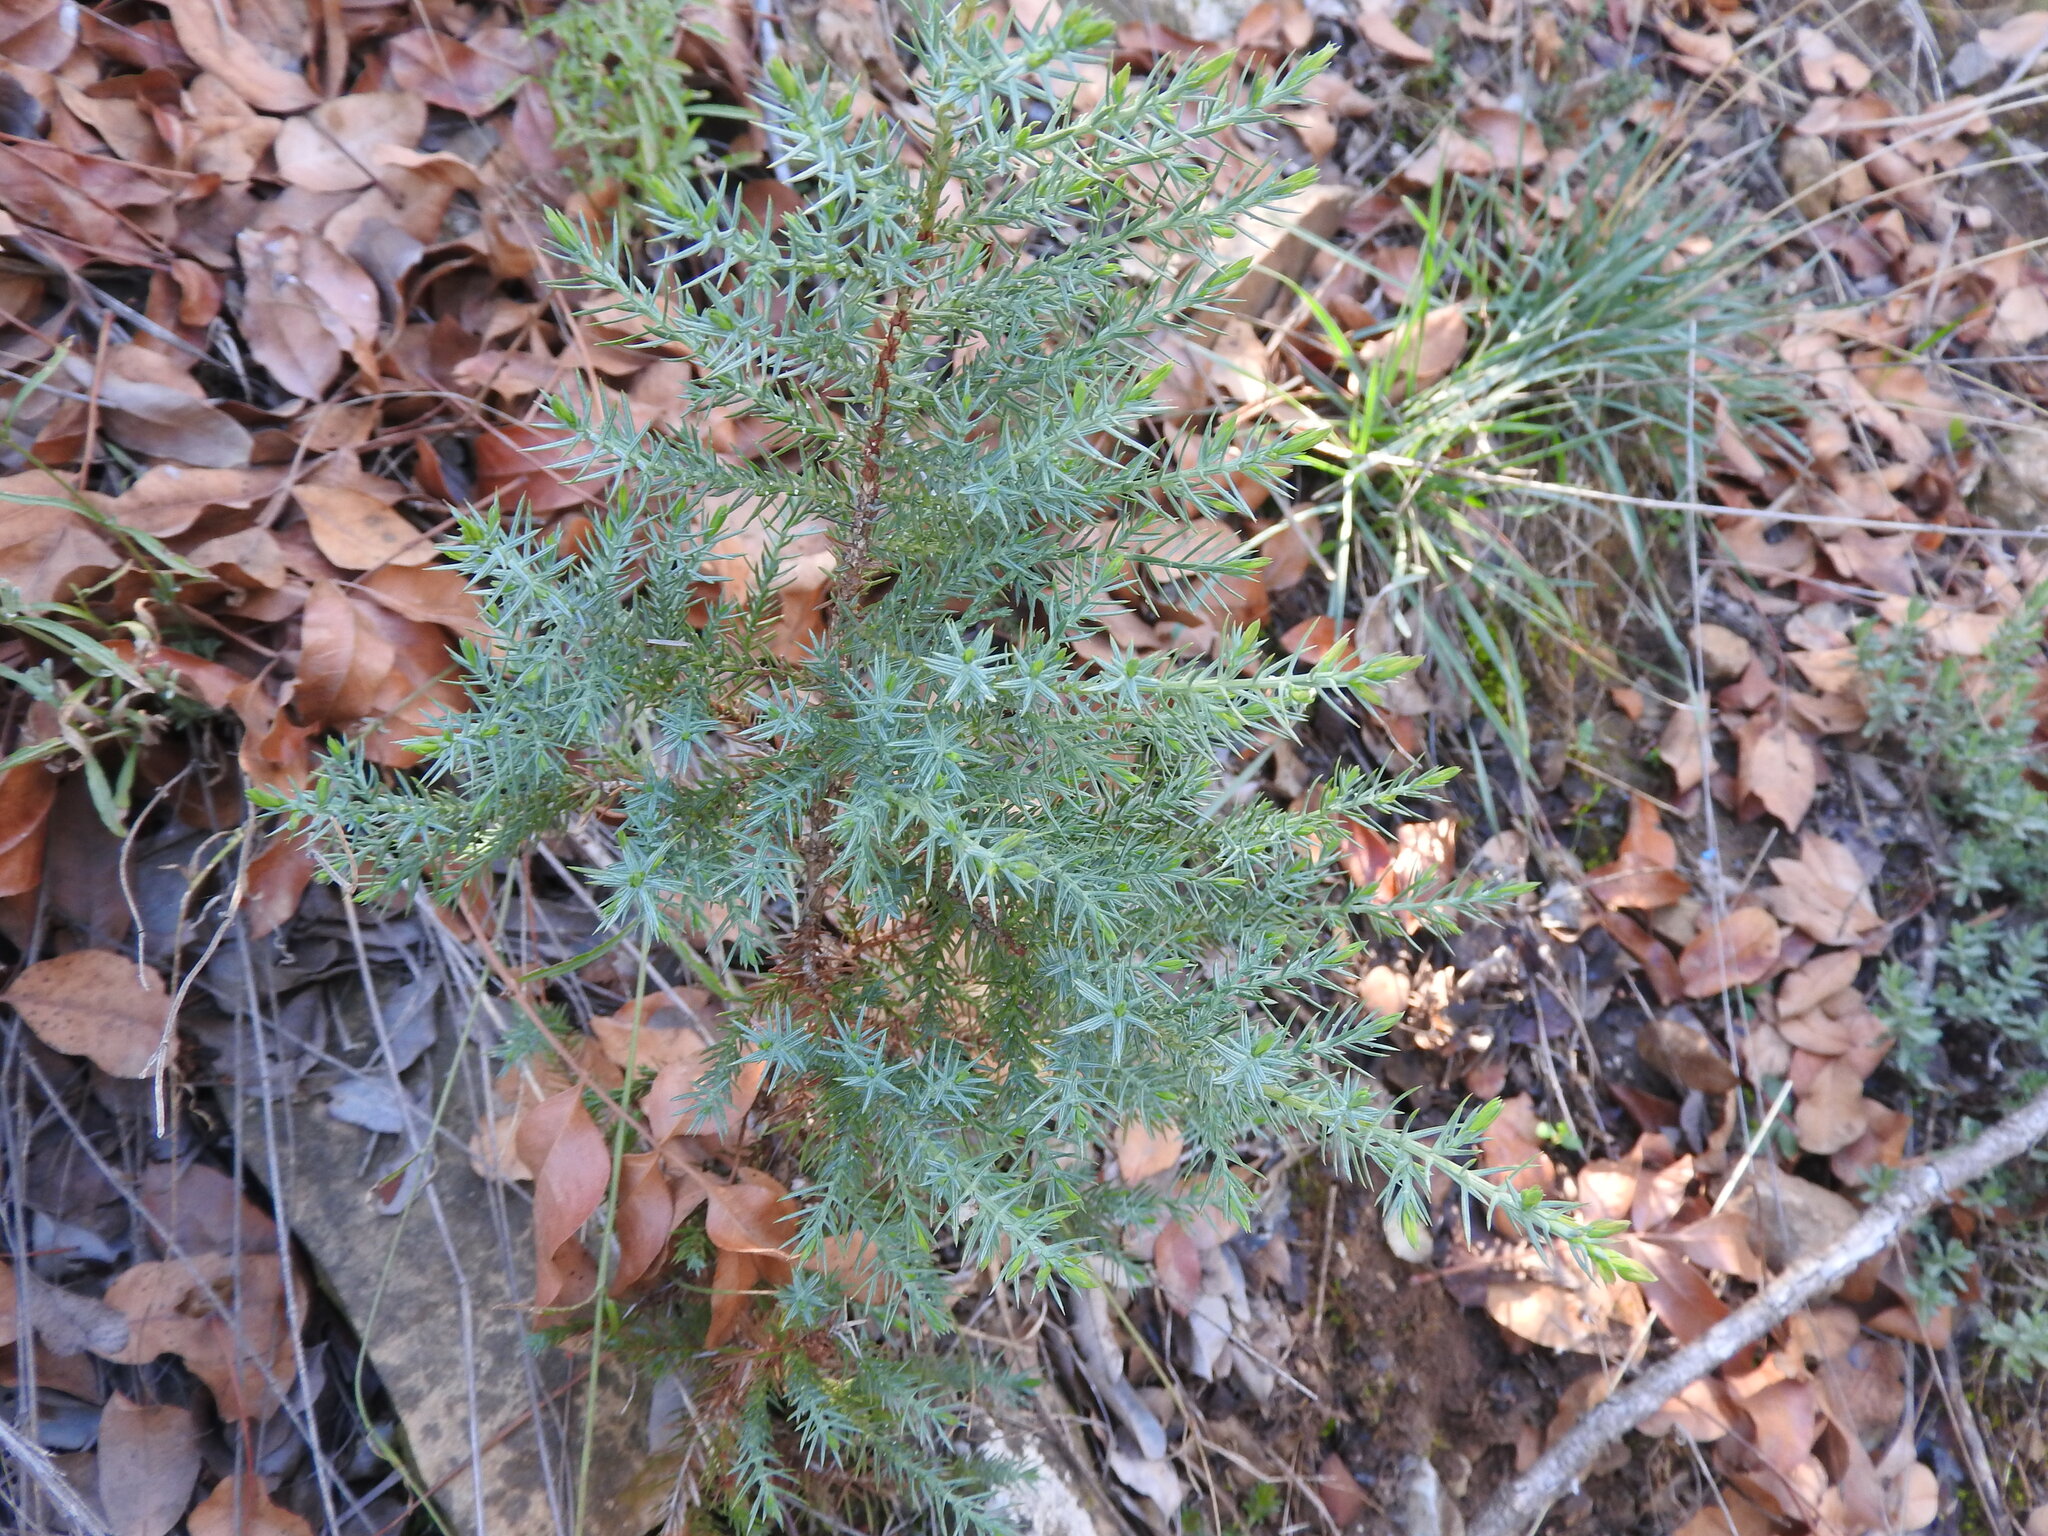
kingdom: Plantae
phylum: Tracheophyta
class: Pinopsida
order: Pinales
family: Cupressaceae
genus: Juniperus
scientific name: Juniperus oxycedrus
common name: Prickly juniper
